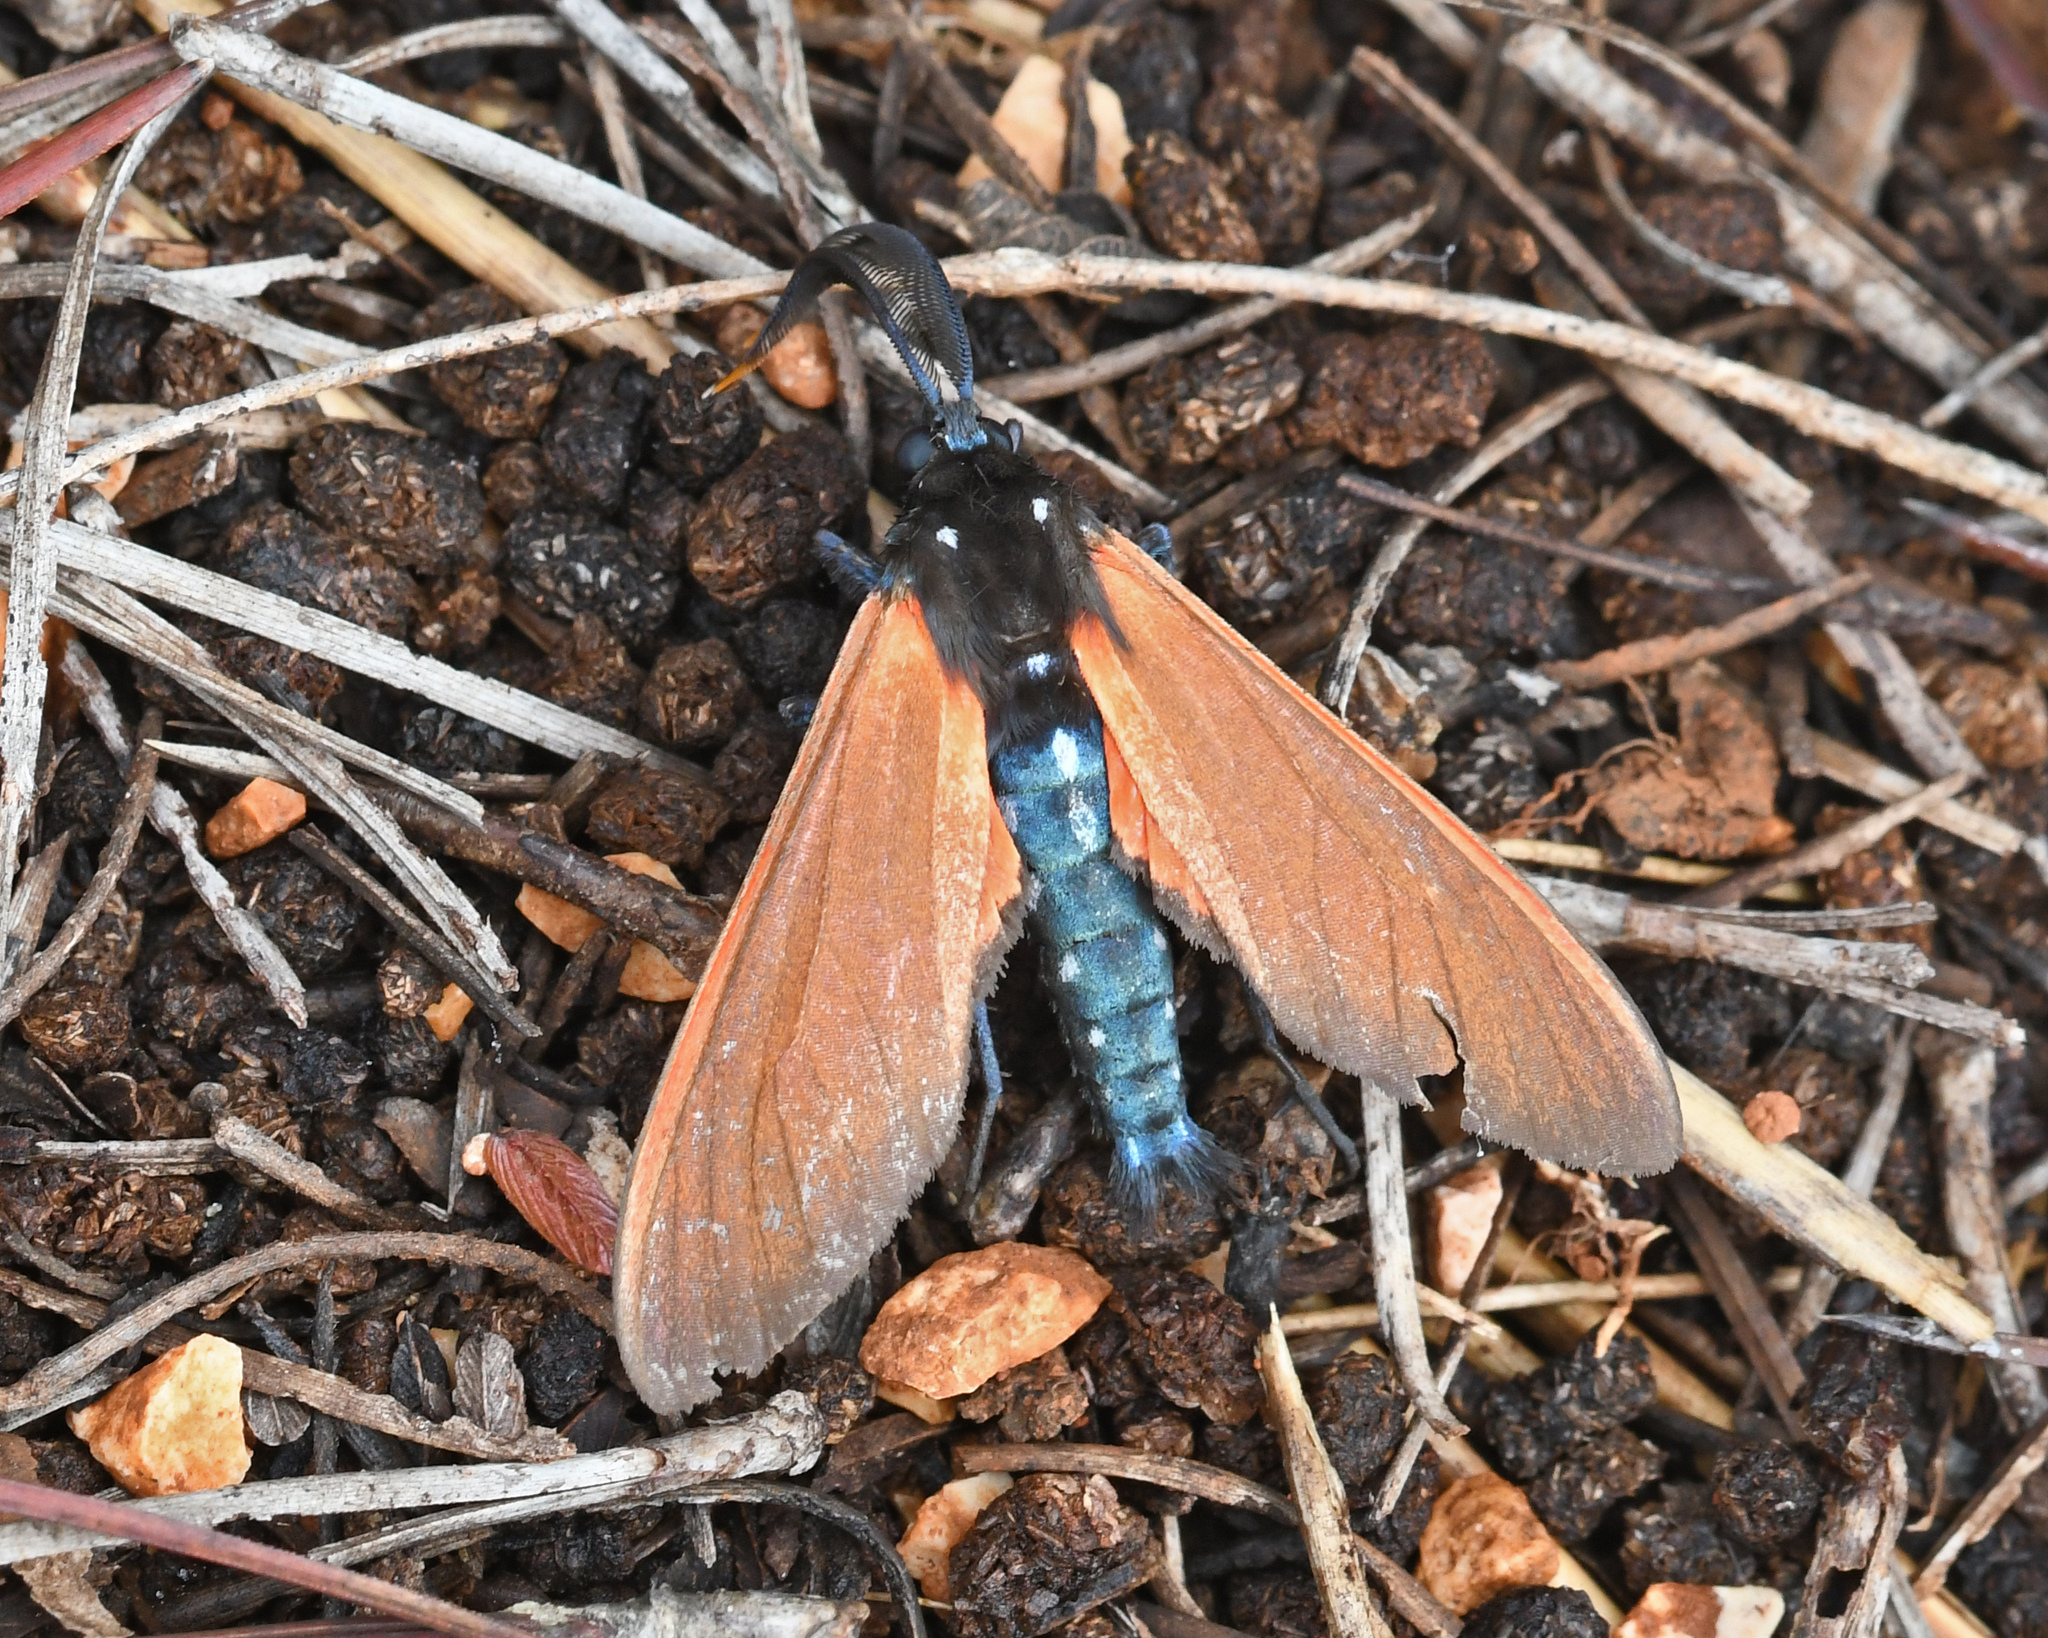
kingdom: Animalia
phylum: Arthropoda
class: Insecta
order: Lepidoptera
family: Erebidae
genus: Empyreuma
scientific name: Empyreuma pugione
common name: Spotted oleander caterpillar moth
